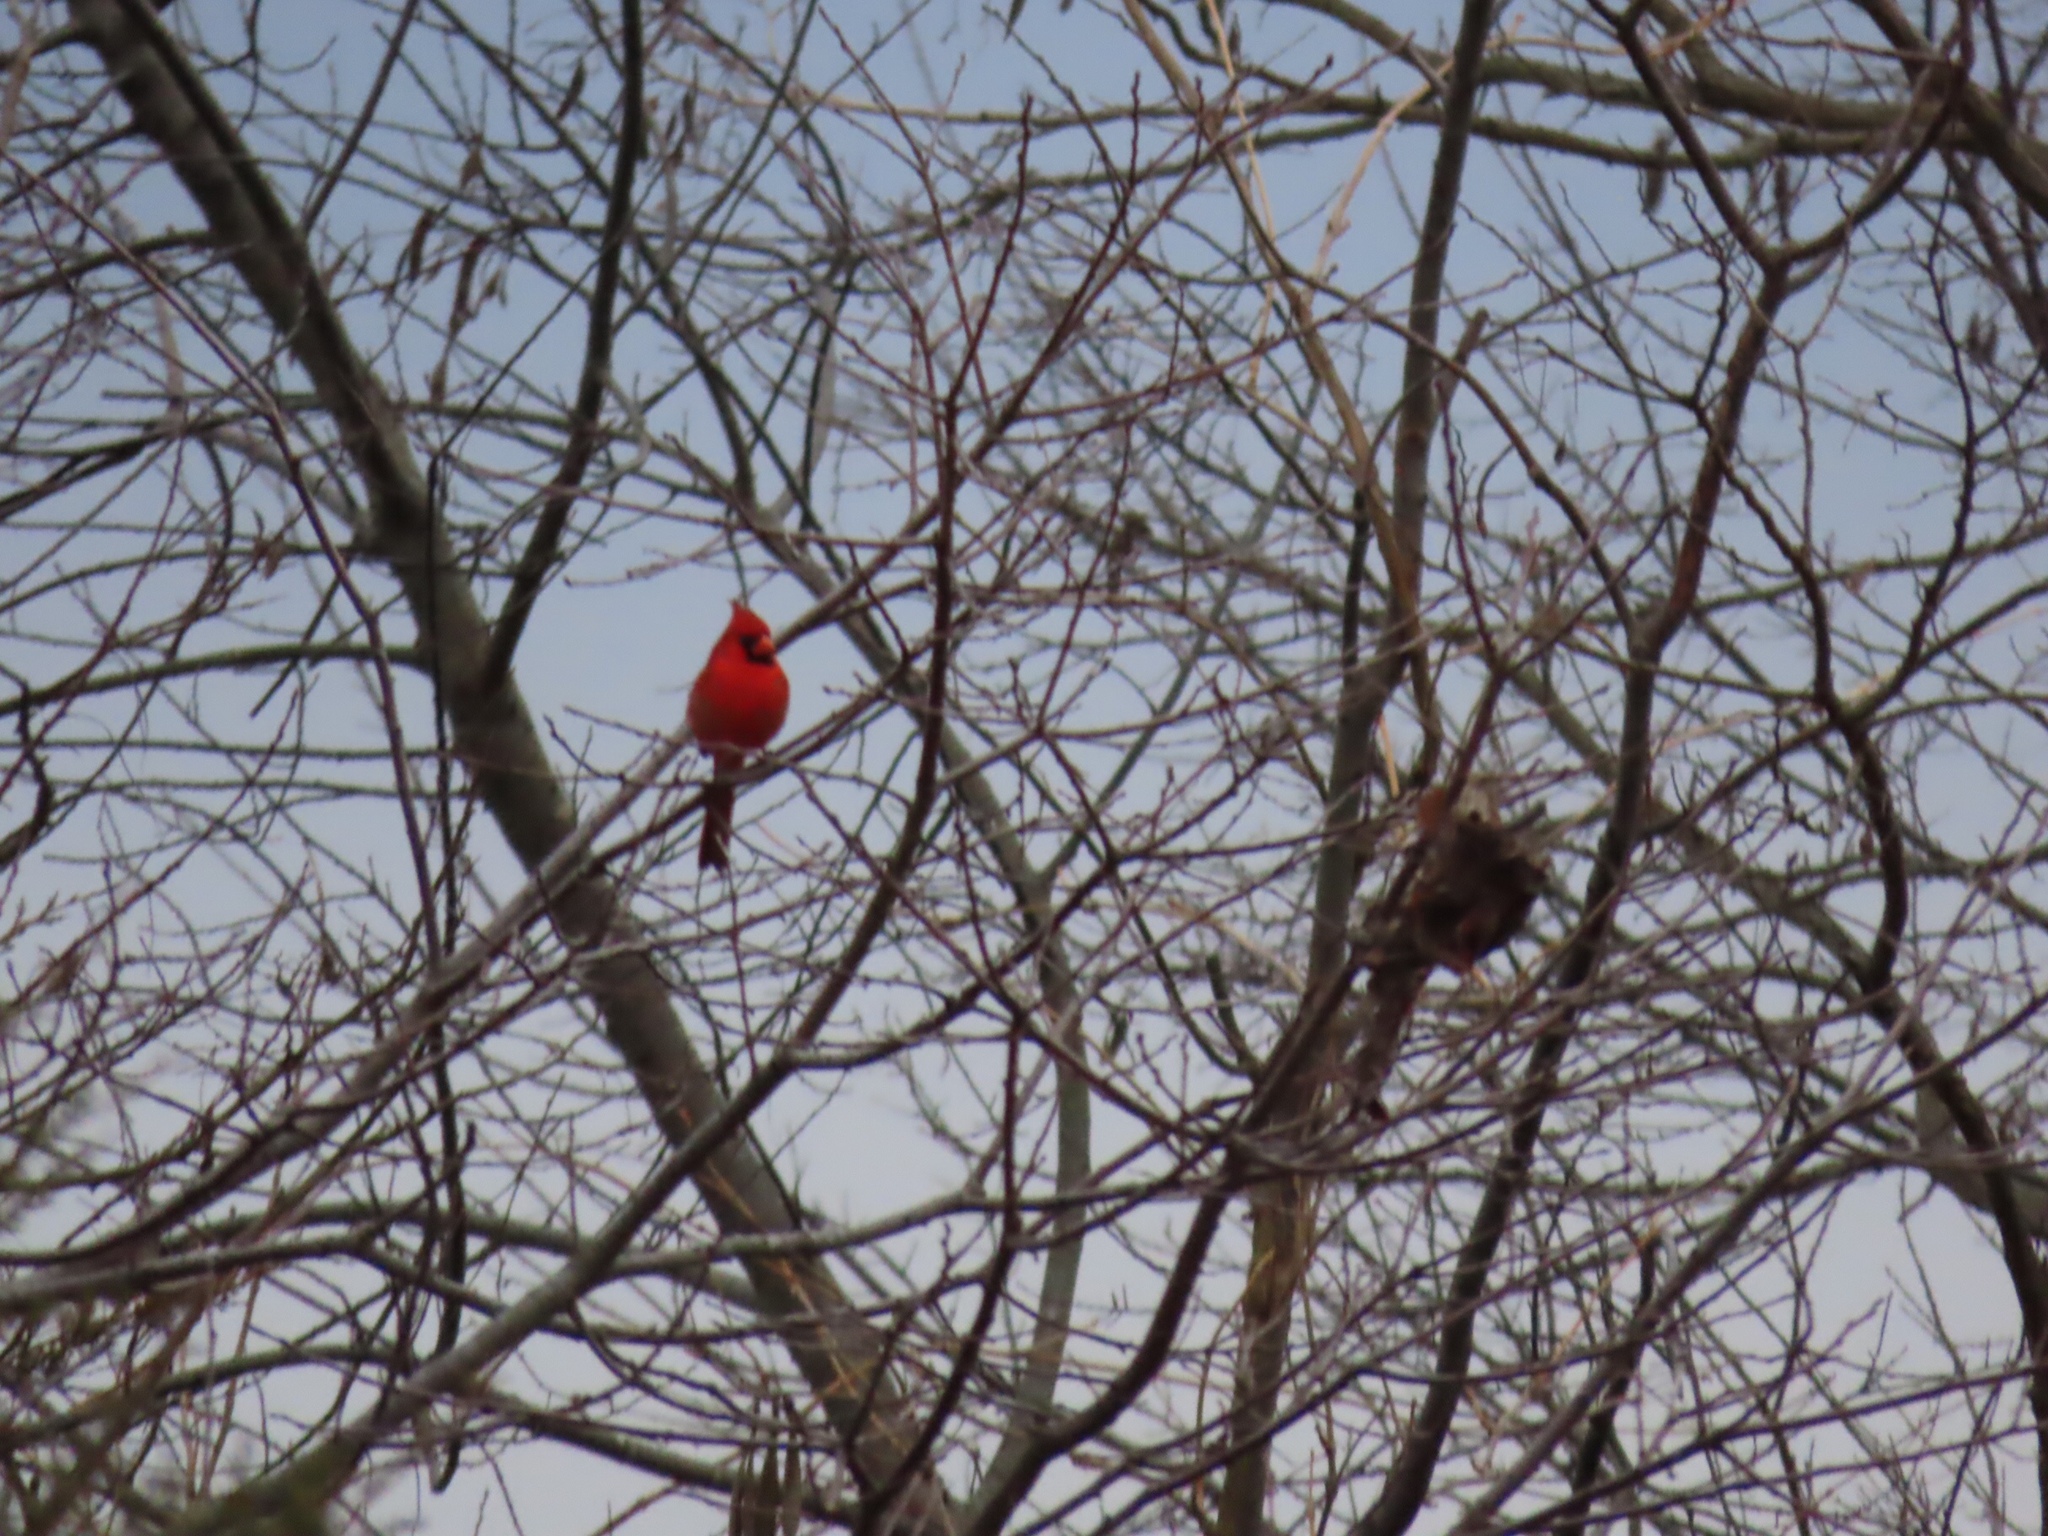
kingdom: Animalia
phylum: Chordata
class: Aves
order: Passeriformes
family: Cardinalidae
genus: Cardinalis
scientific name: Cardinalis cardinalis
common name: Northern cardinal
